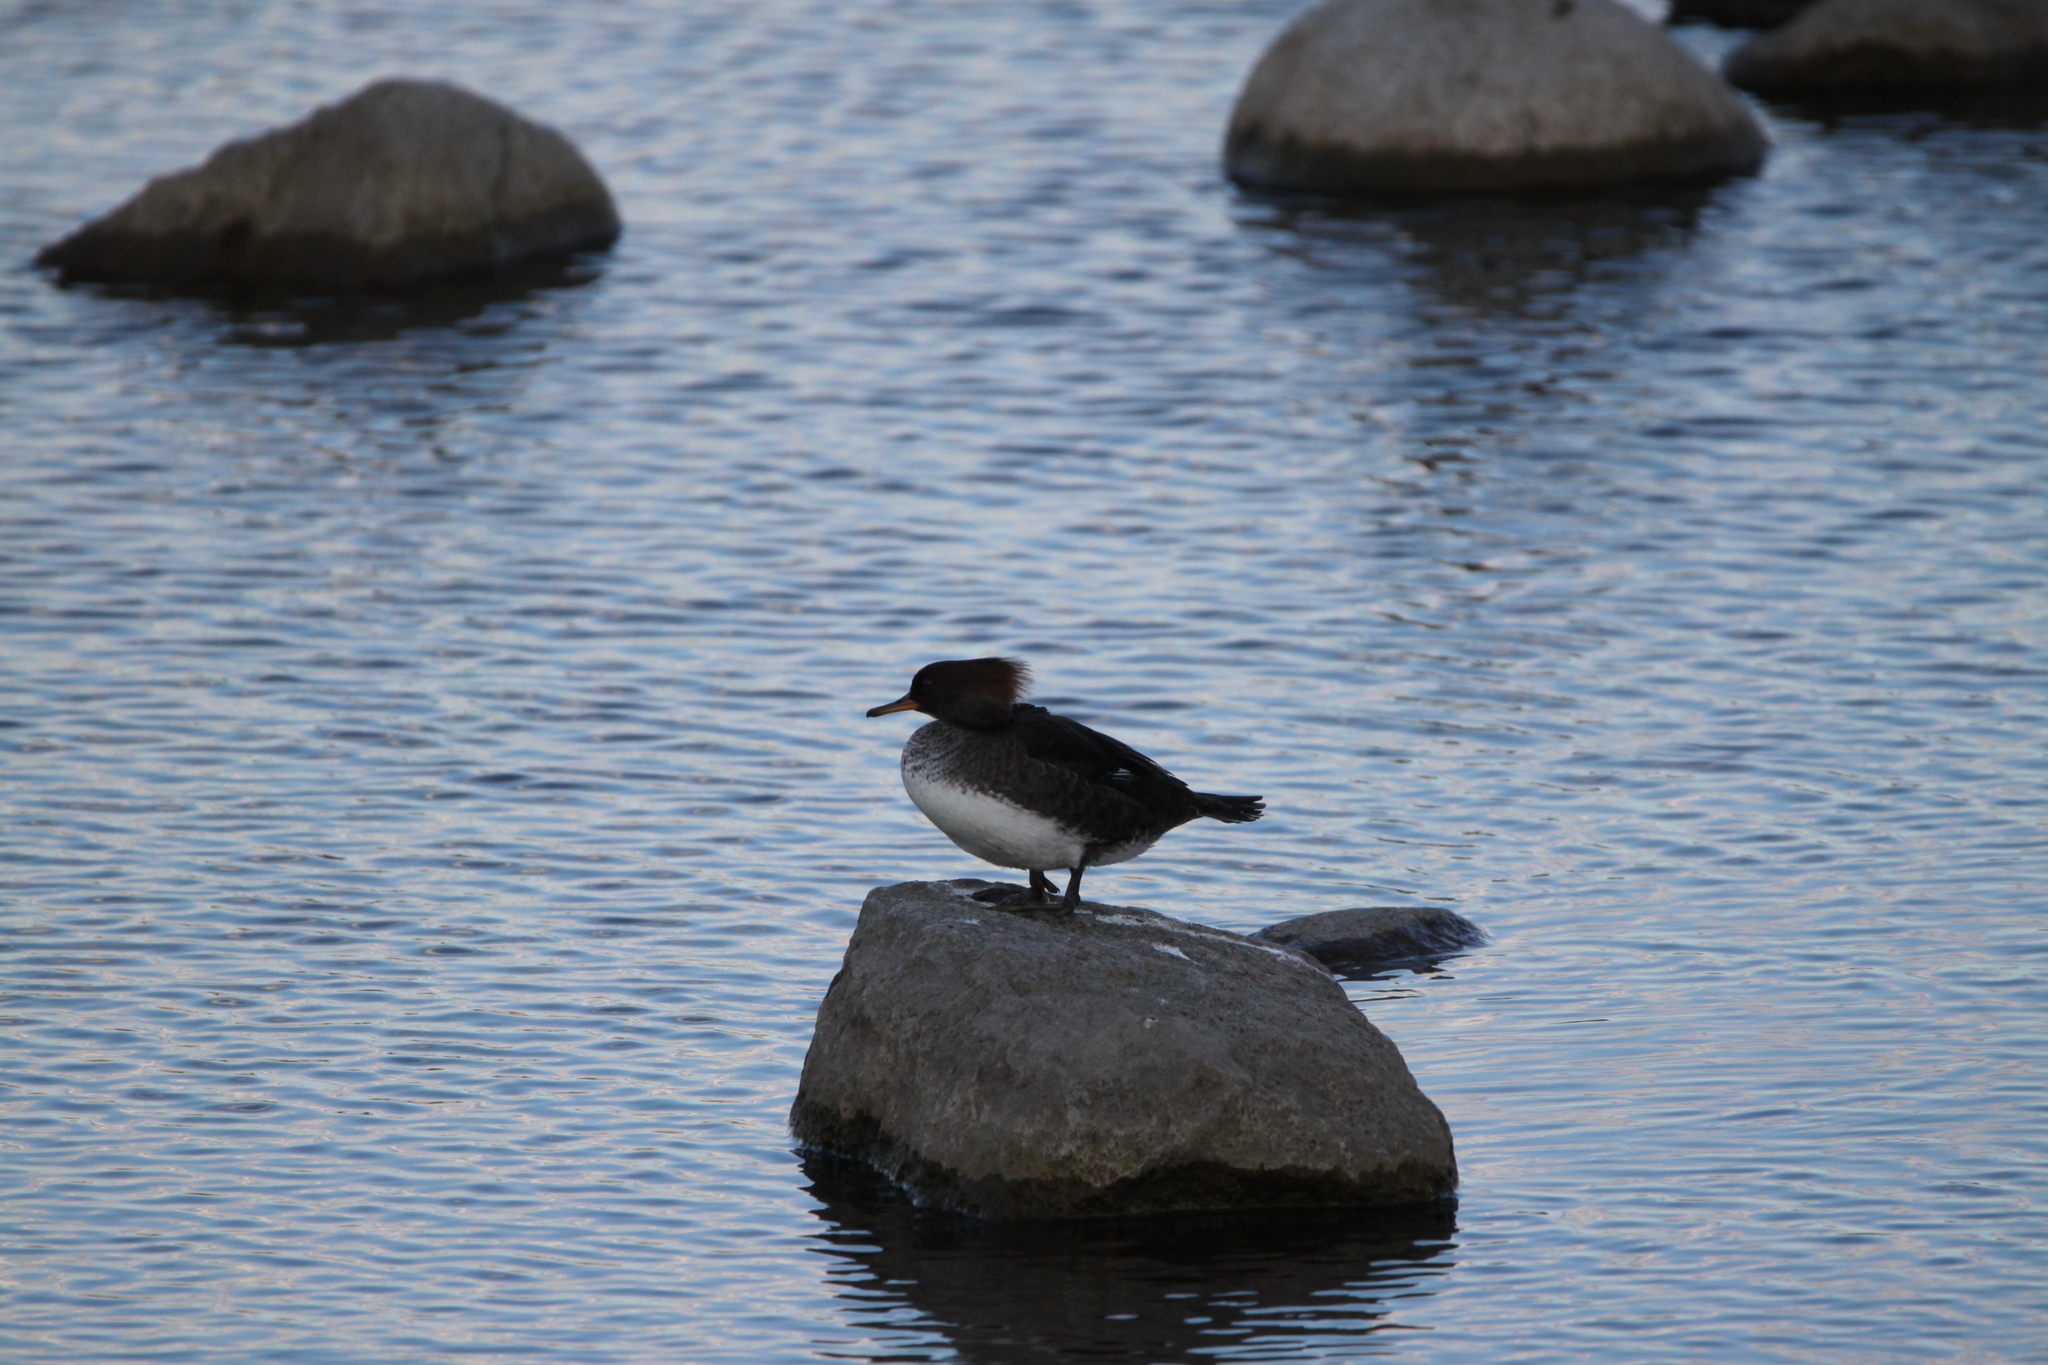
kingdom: Animalia
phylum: Chordata
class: Aves
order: Anseriformes
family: Anatidae
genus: Lophodytes
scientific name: Lophodytes cucullatus
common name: Hooded merganser
